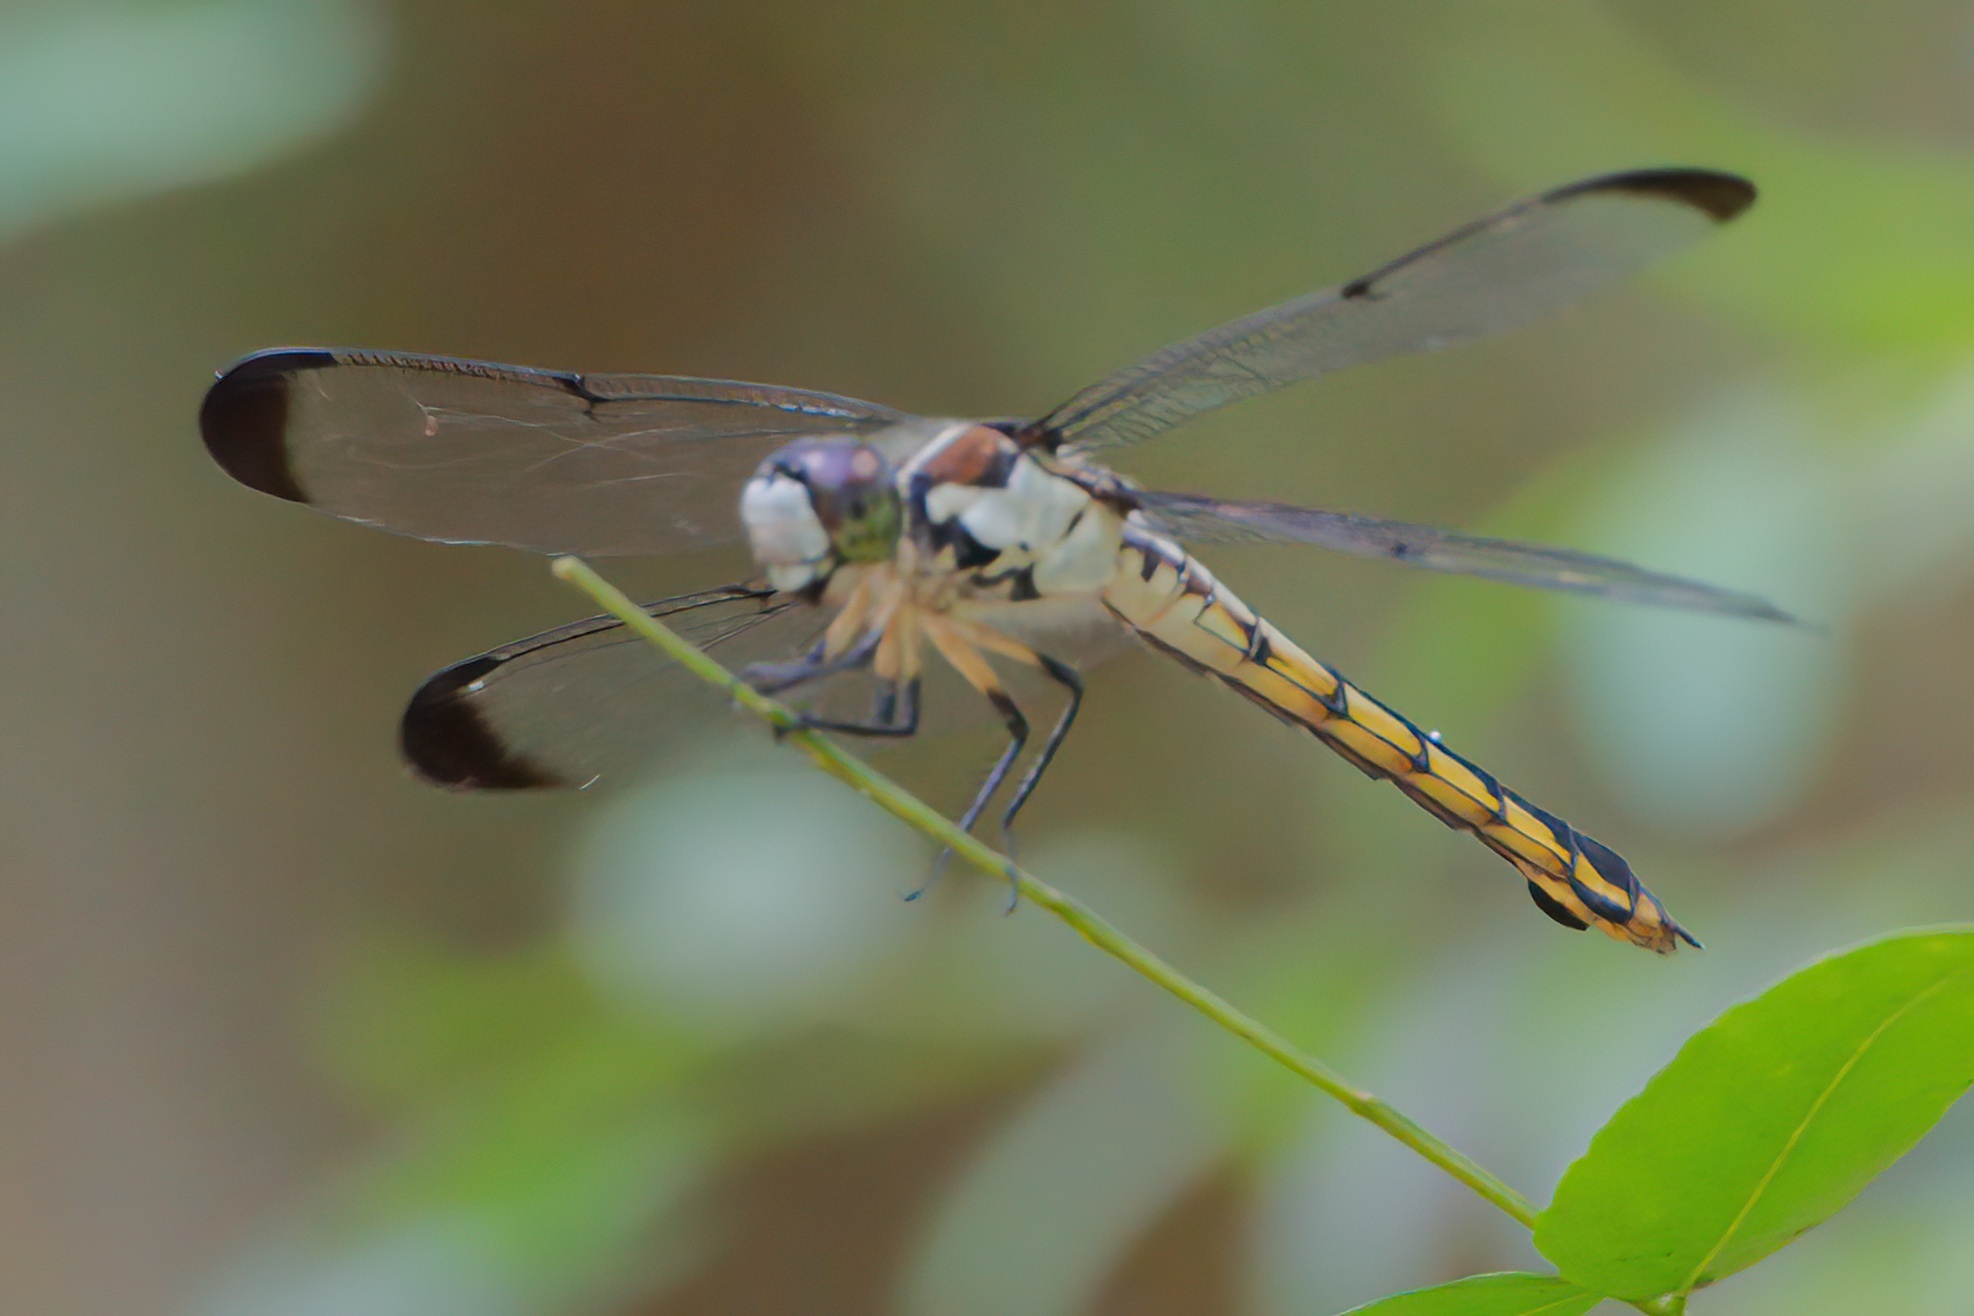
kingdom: Animalia
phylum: Arthropoda
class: Insecta
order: Odonata
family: Libellulidae
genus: Libellula
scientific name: Libellula vibrans
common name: Great blue skimmer
